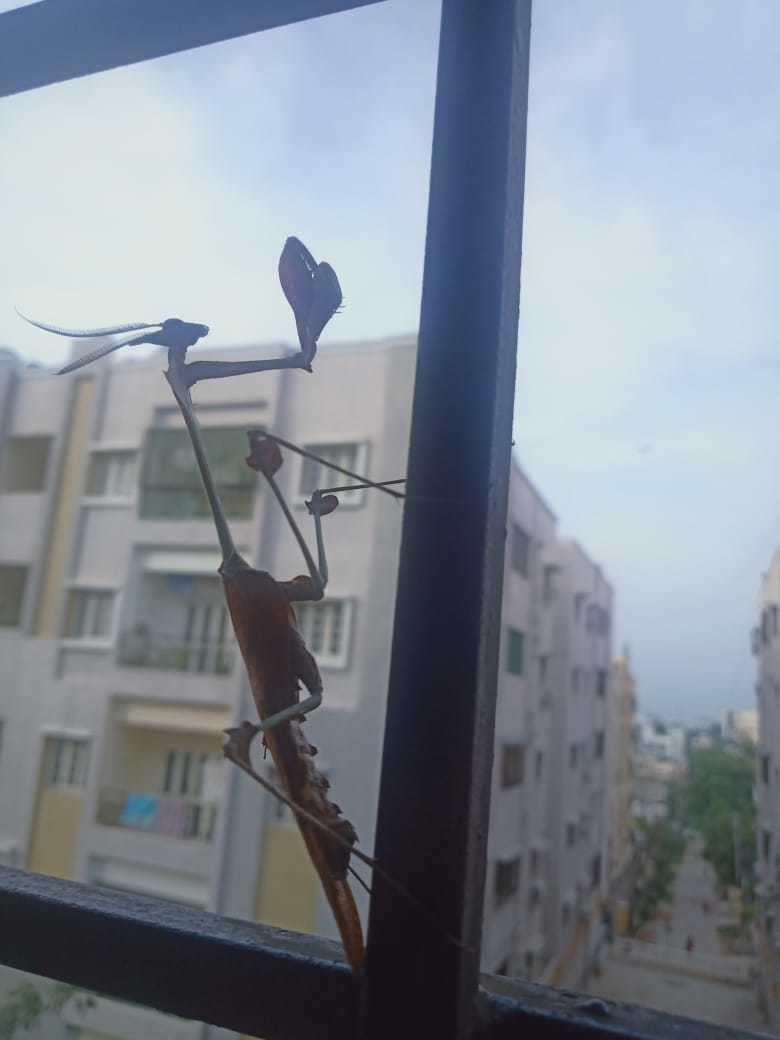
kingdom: Animalia
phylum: Arthropoda
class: Insecta
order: Mantodea
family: Empusidae
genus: Gongylus
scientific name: Gongylus gongylodes
